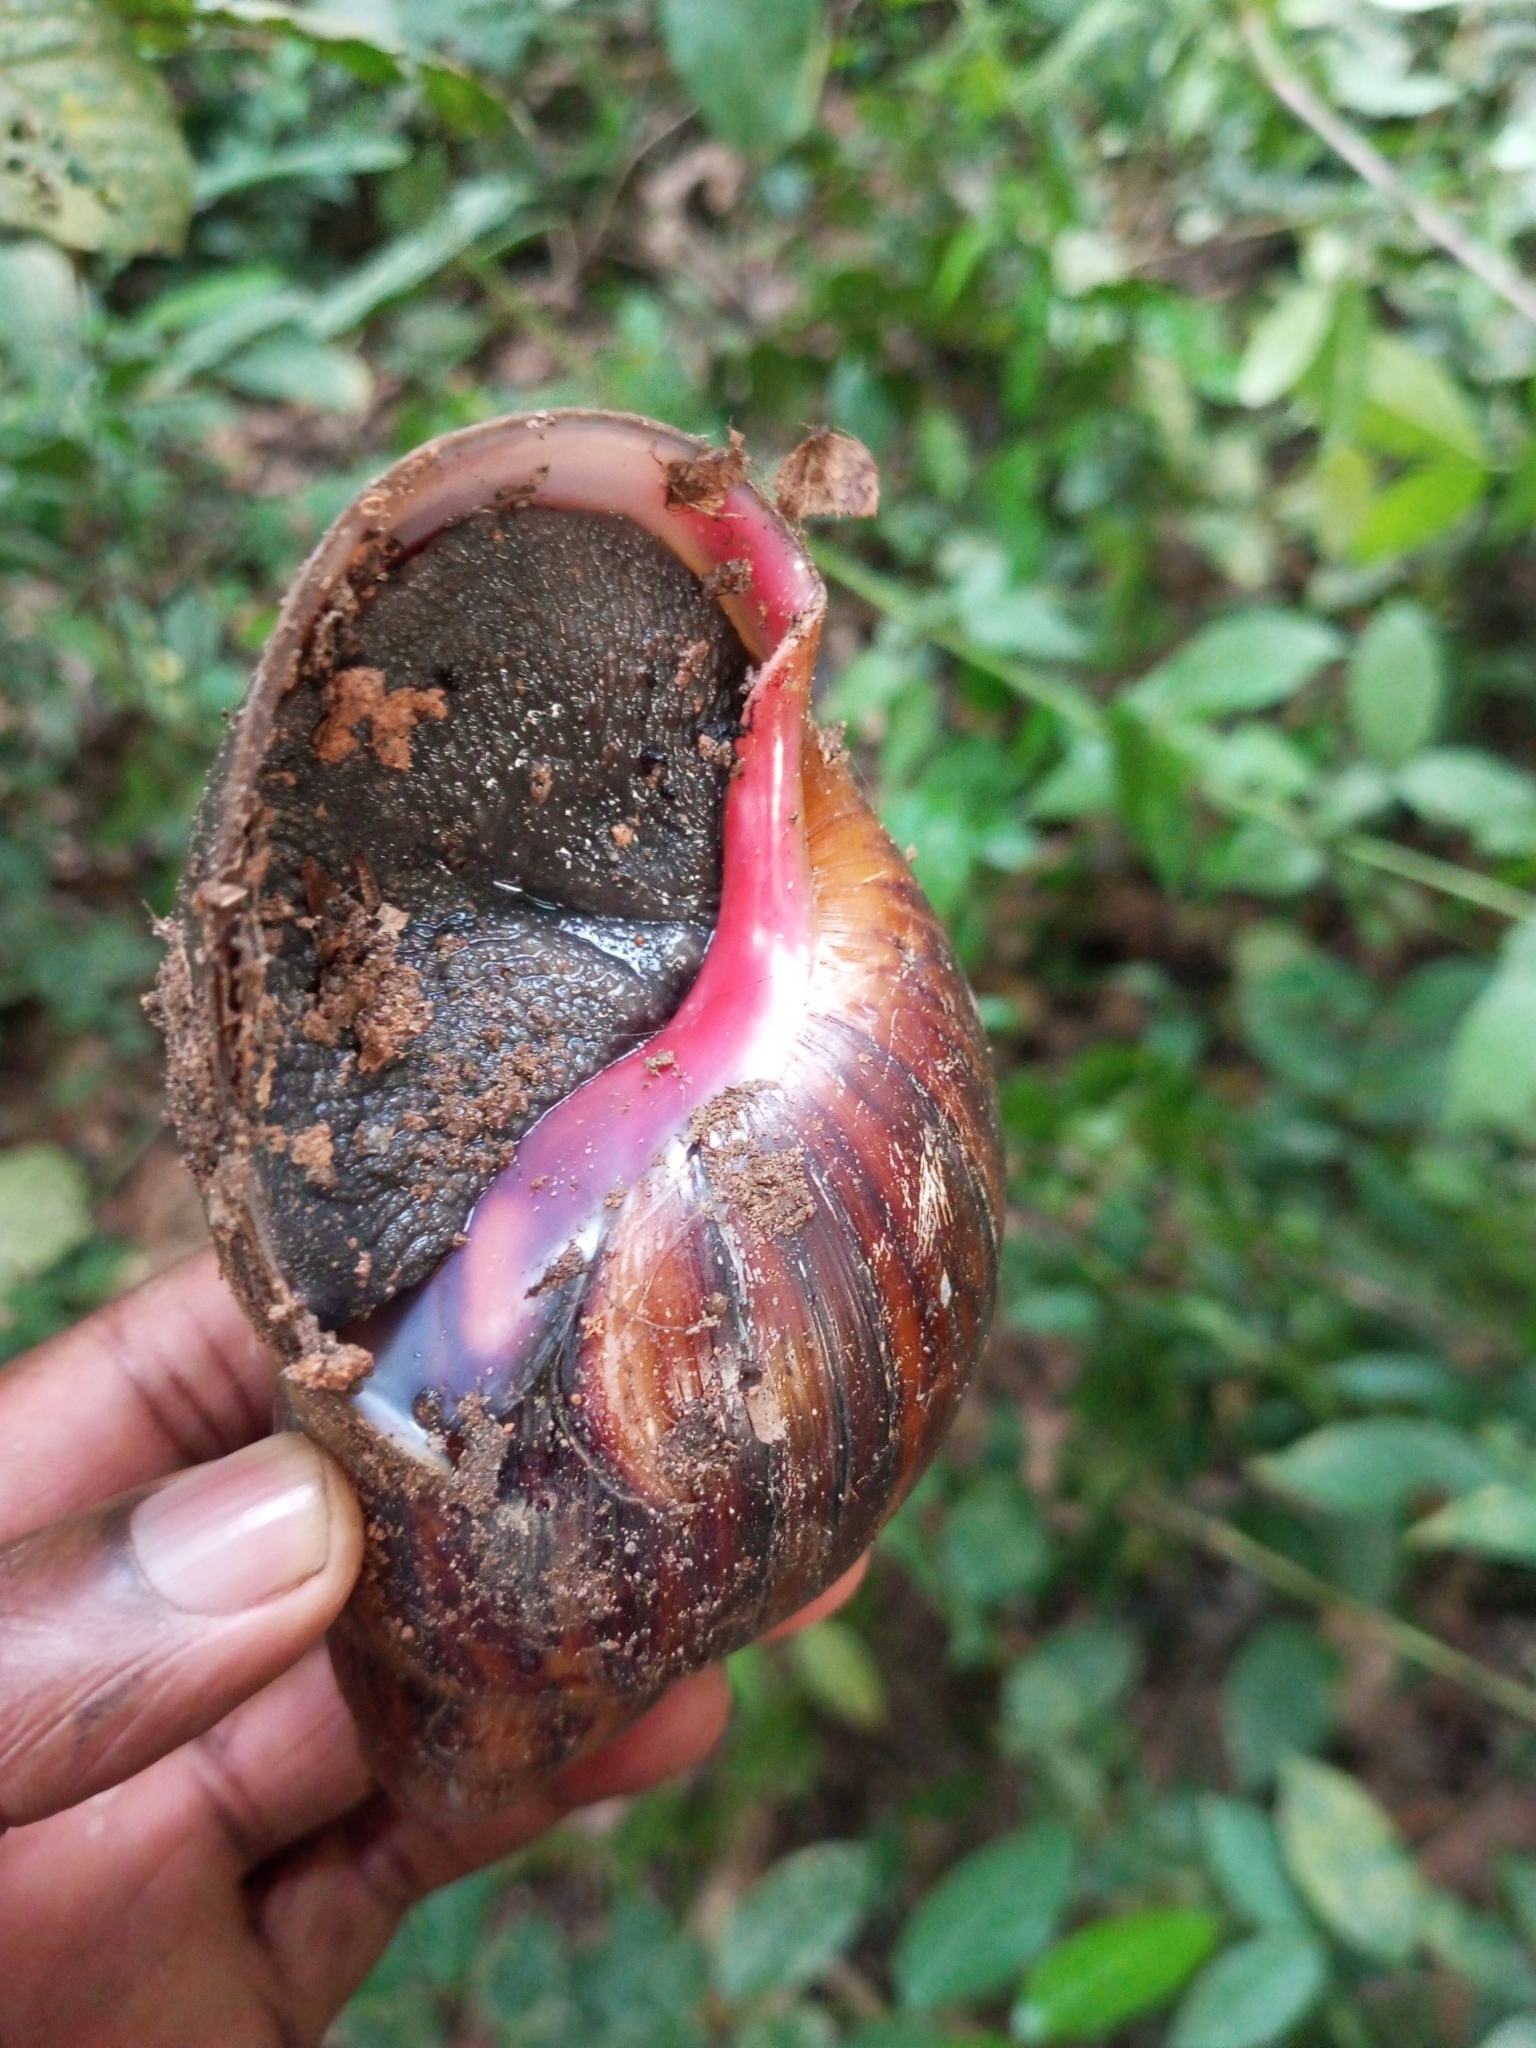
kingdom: Animalia
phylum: Mollusca
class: Gastropoda
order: Stylommatophora
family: Achatinidae
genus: Archachatina
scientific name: Archachatina marginata
